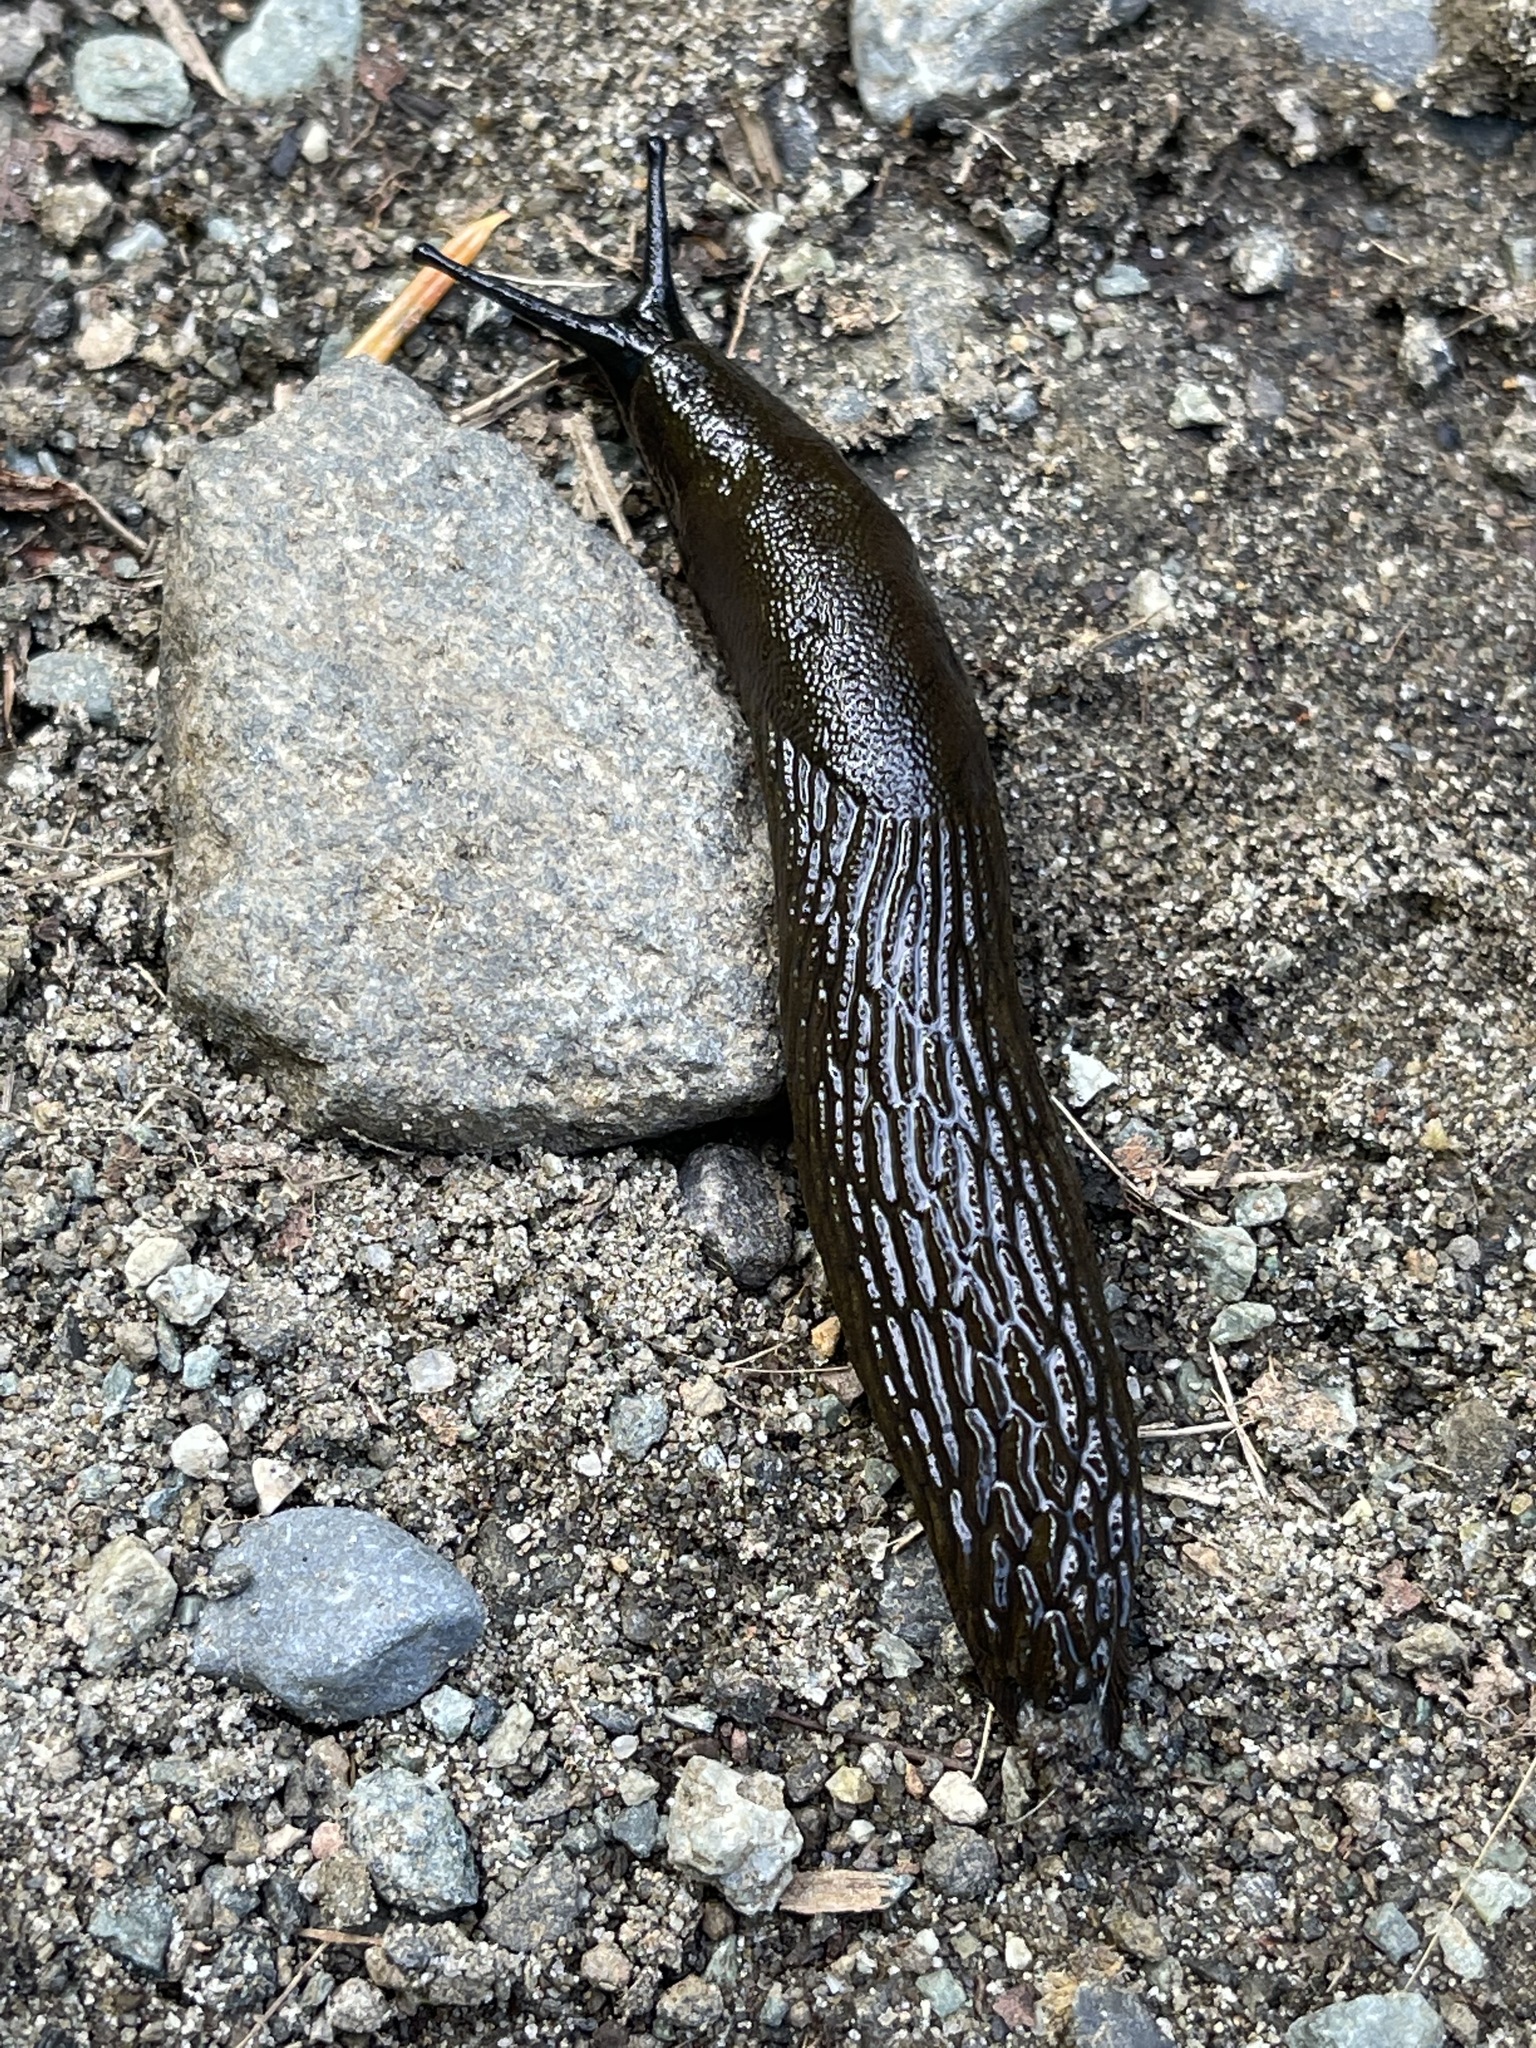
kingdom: Animalia
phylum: Mollusca
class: Gastropoda
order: Stylommatophora
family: Arionidae
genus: Arion
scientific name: Arion
